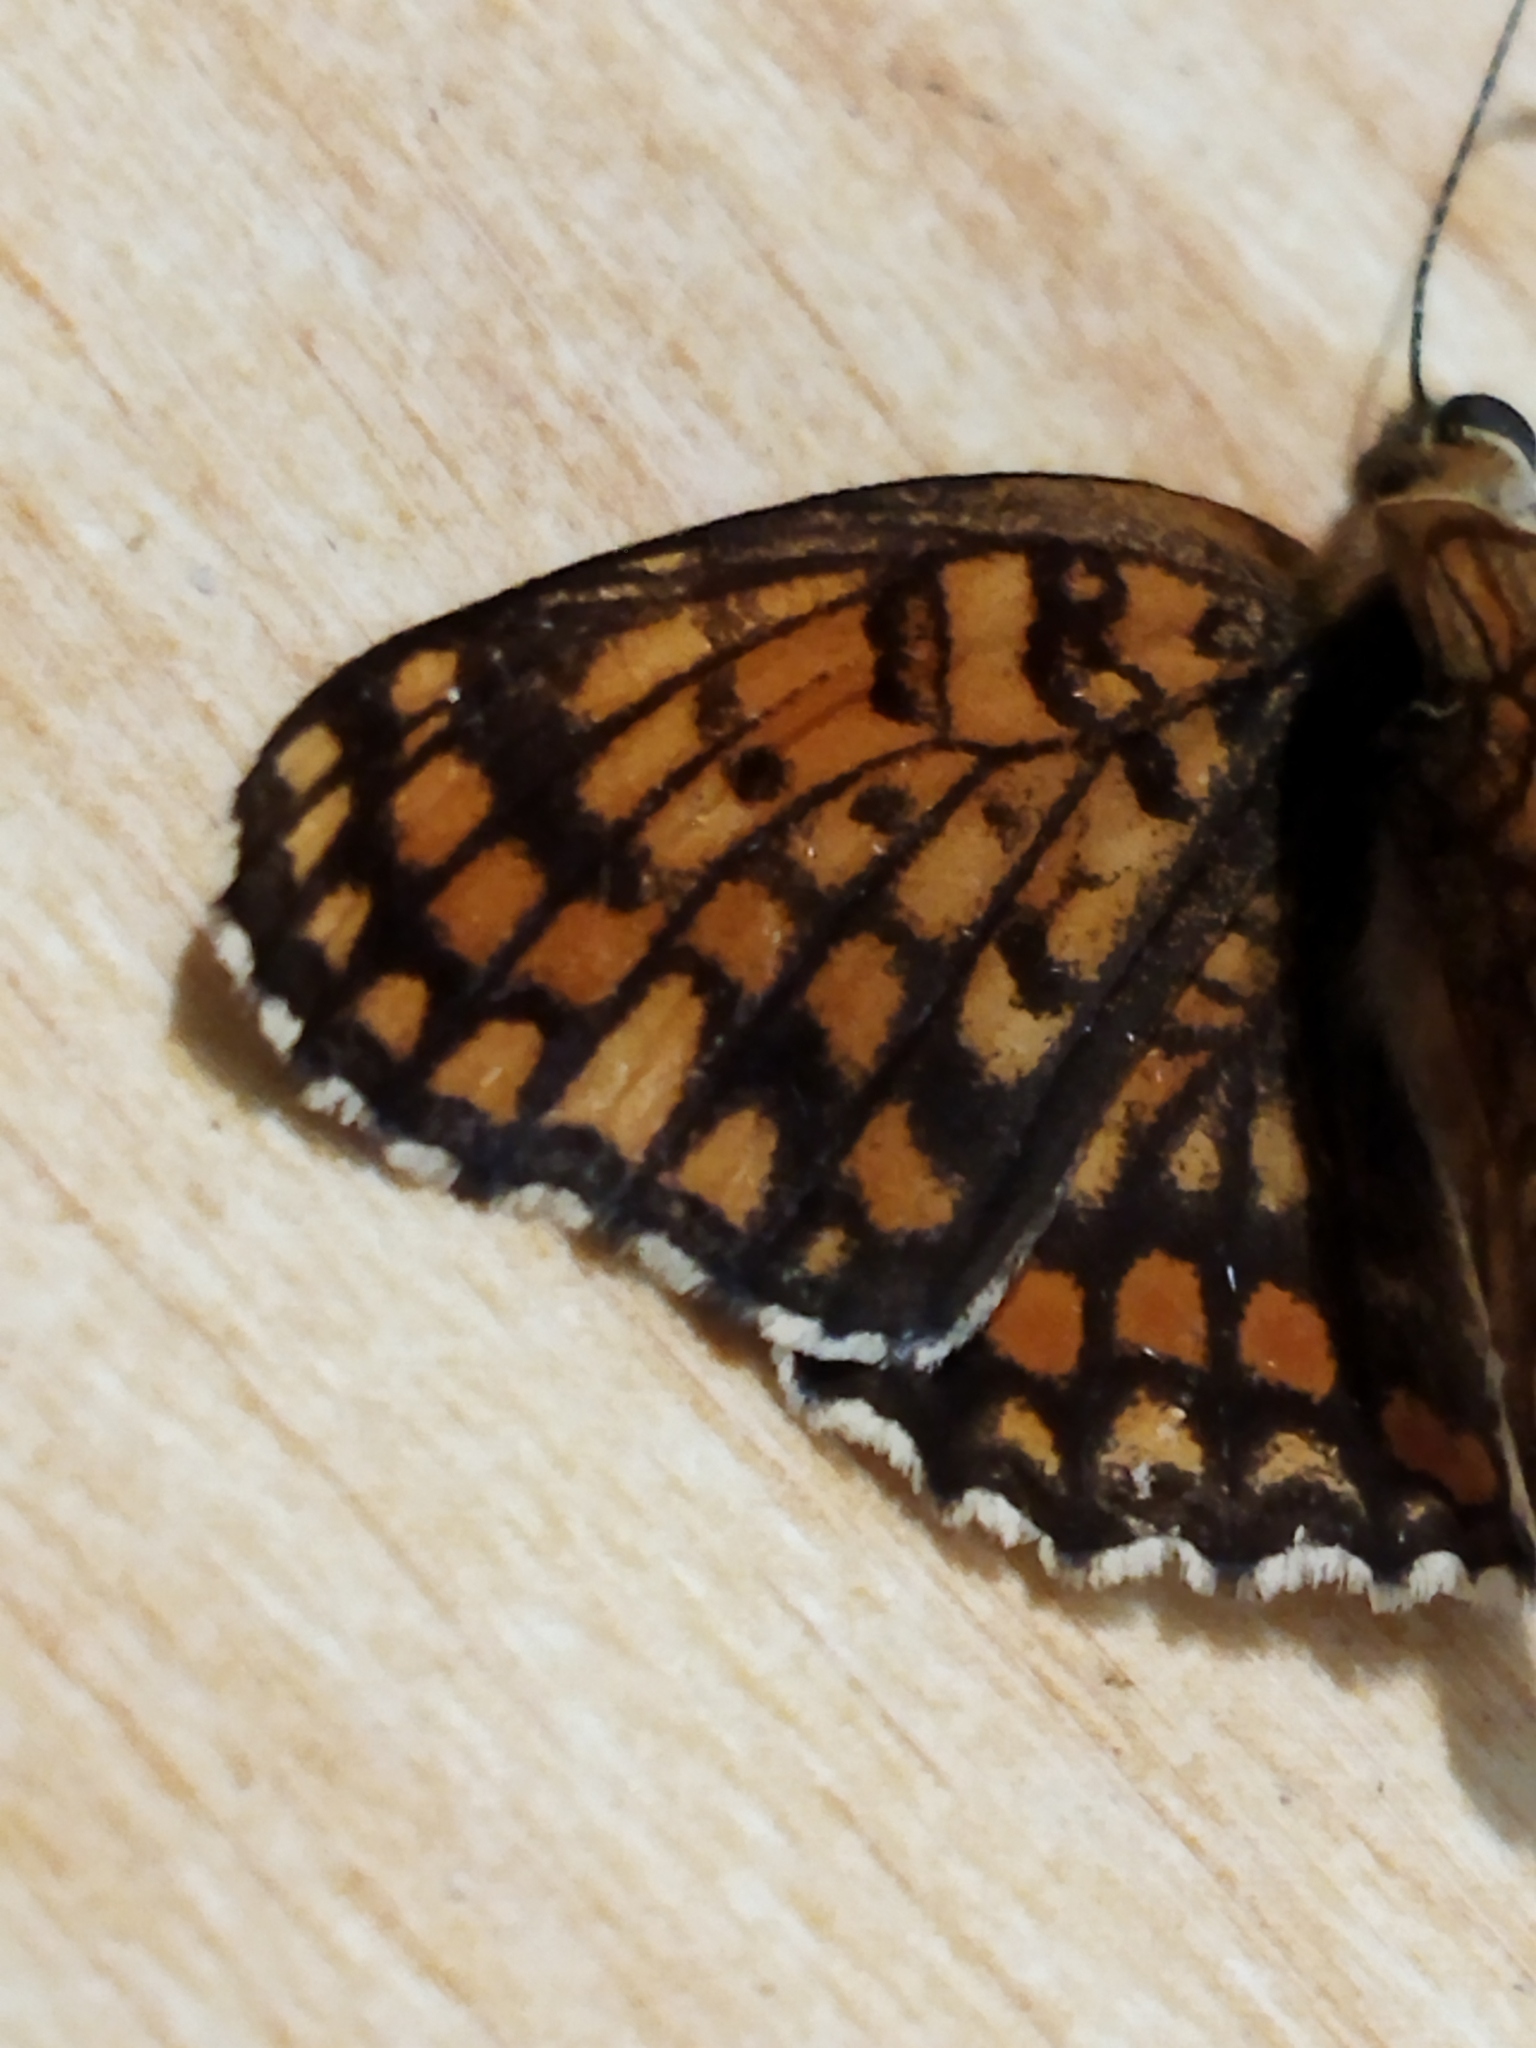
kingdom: Animalia
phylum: Arthropoda
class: Insecta
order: Lepidoptera
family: Nymphalidae
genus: Melitaea
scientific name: Melitaea phoebe
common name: Knapweed fritillary
